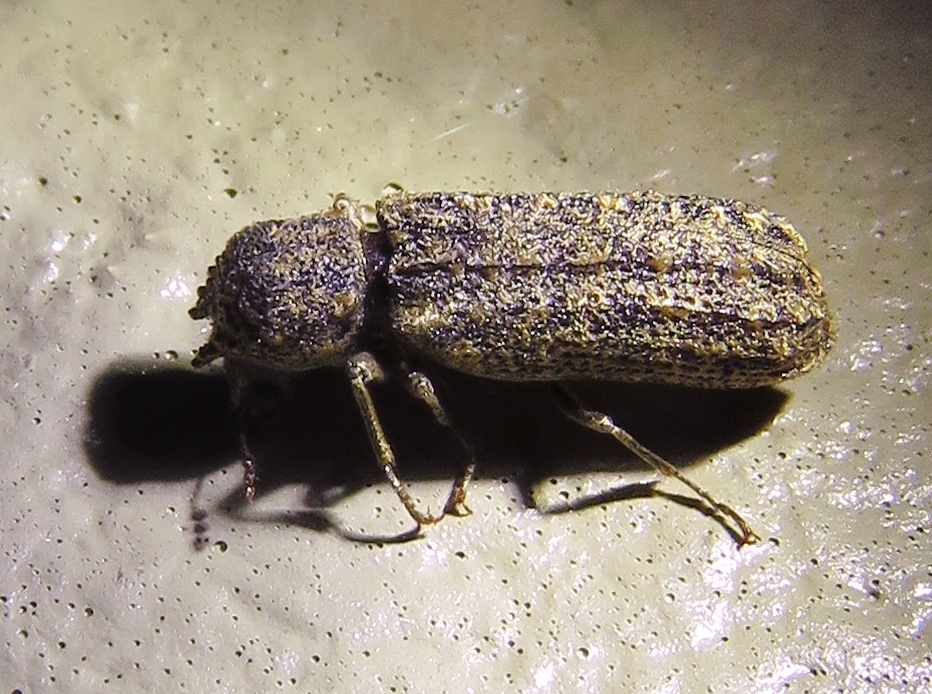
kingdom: Animalia
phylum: Arthropoda
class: Insecta
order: Coleoptera
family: Bostrichidae
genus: Lichenophanes
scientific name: Lichenophanes bicornis
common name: Two-horned powder-post beetle
